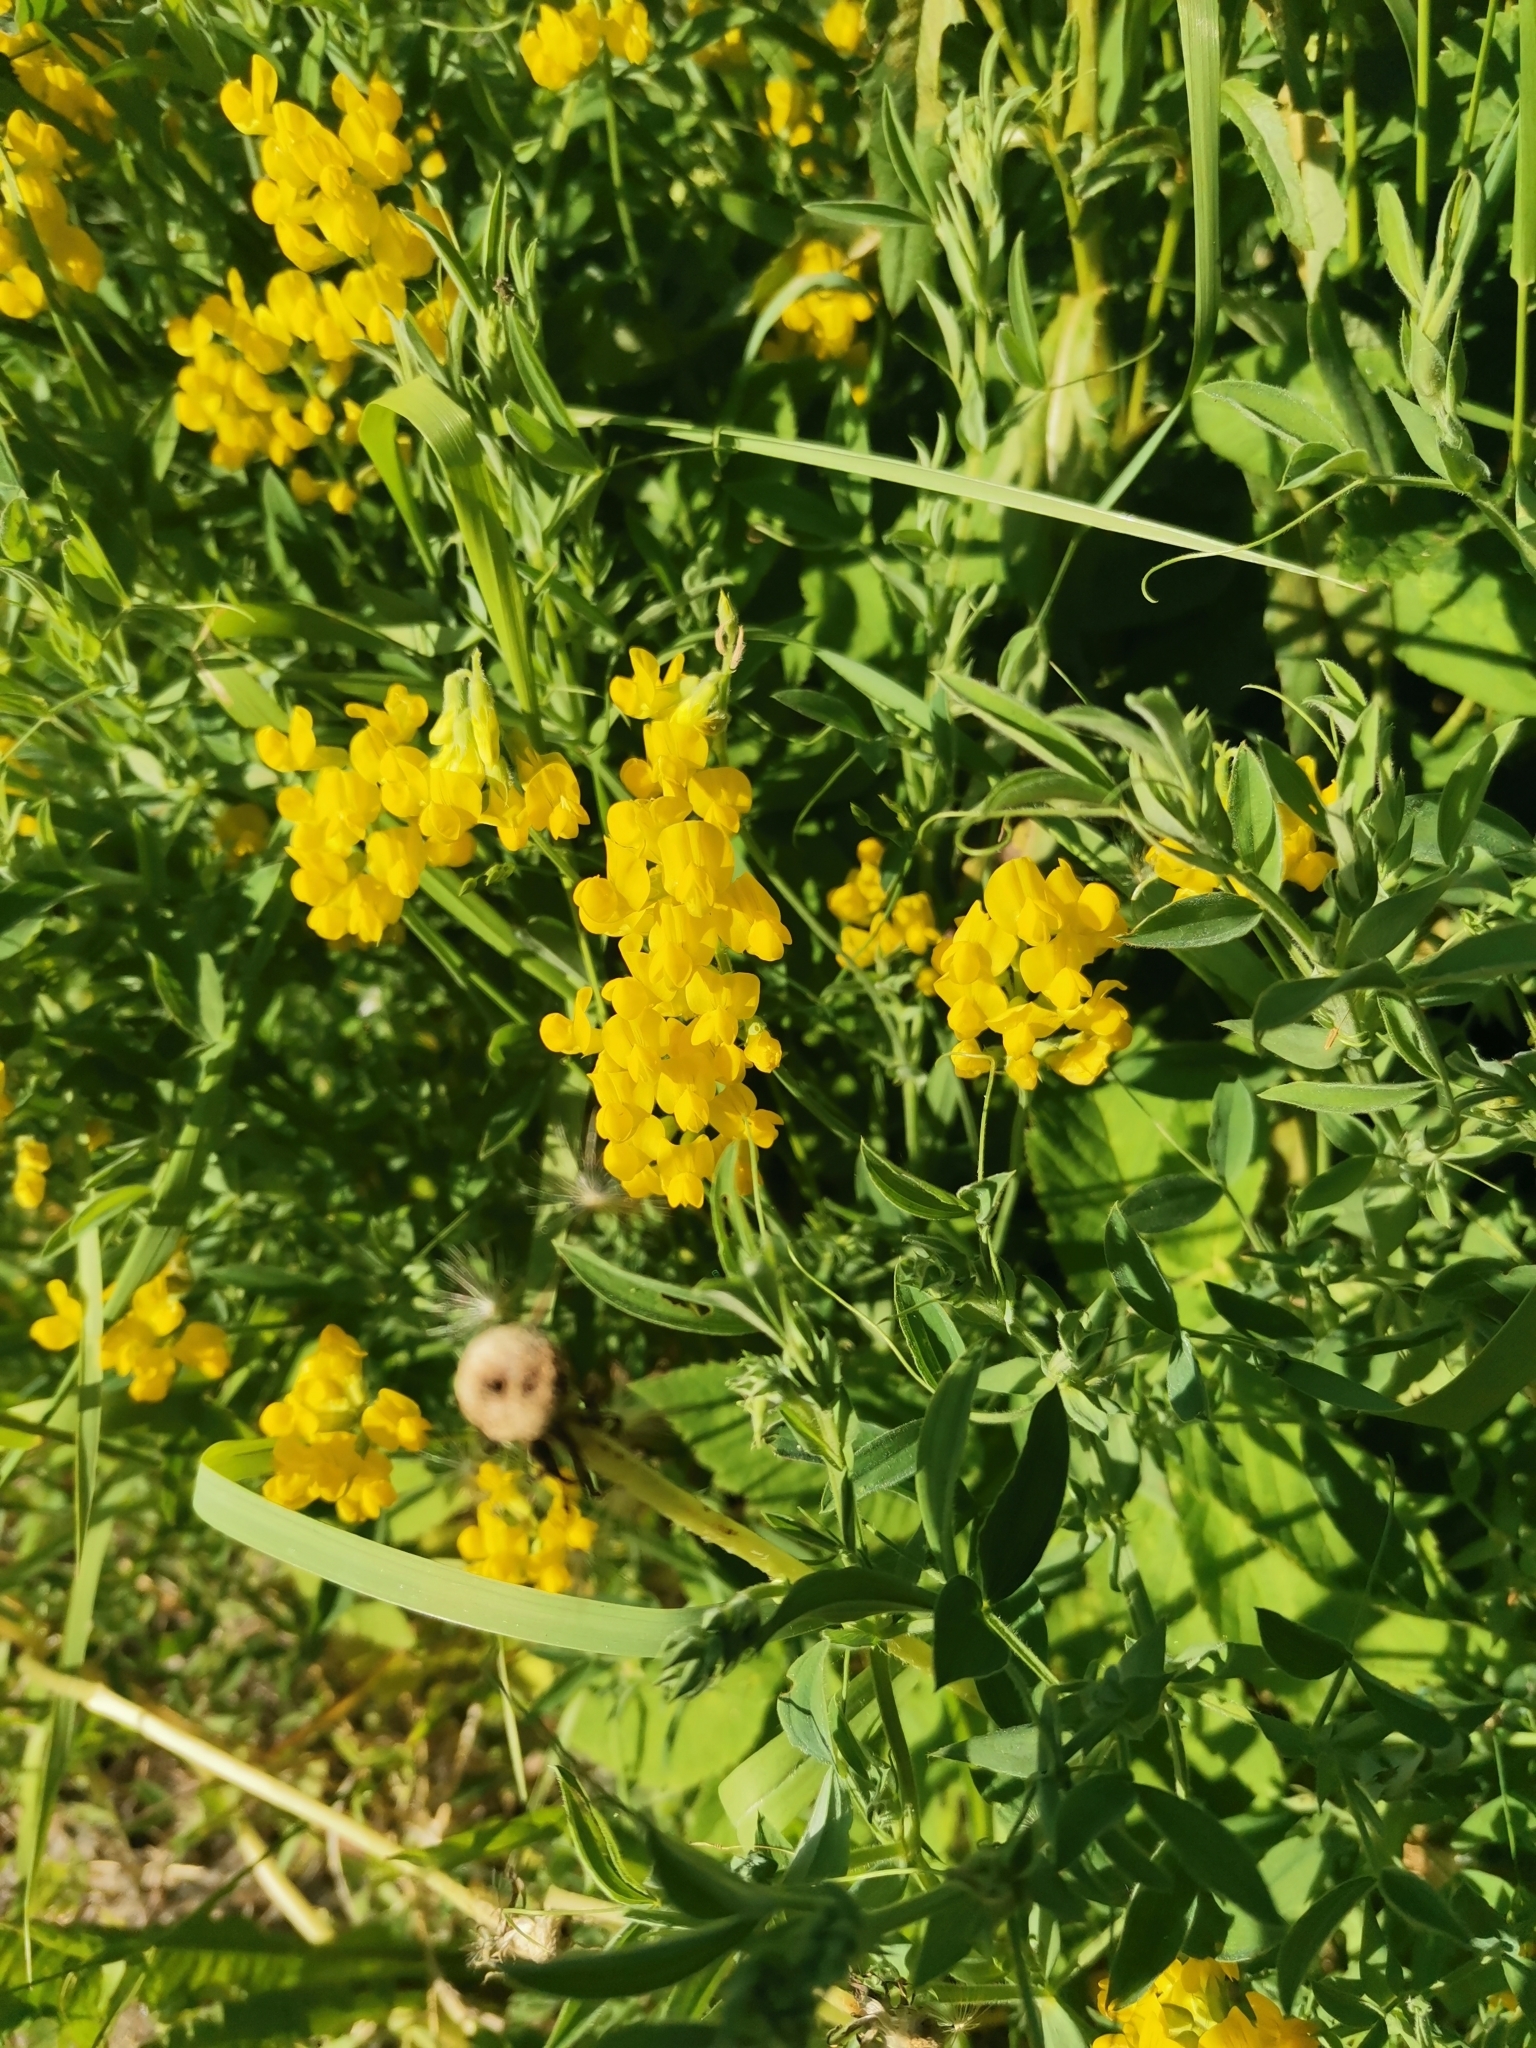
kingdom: Plantae
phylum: Tracheophyta
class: Magnoliopsida
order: Fabales
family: Fabaceae
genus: Lathyrus
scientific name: Lathyrus pratensis
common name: Meadow vetchling
